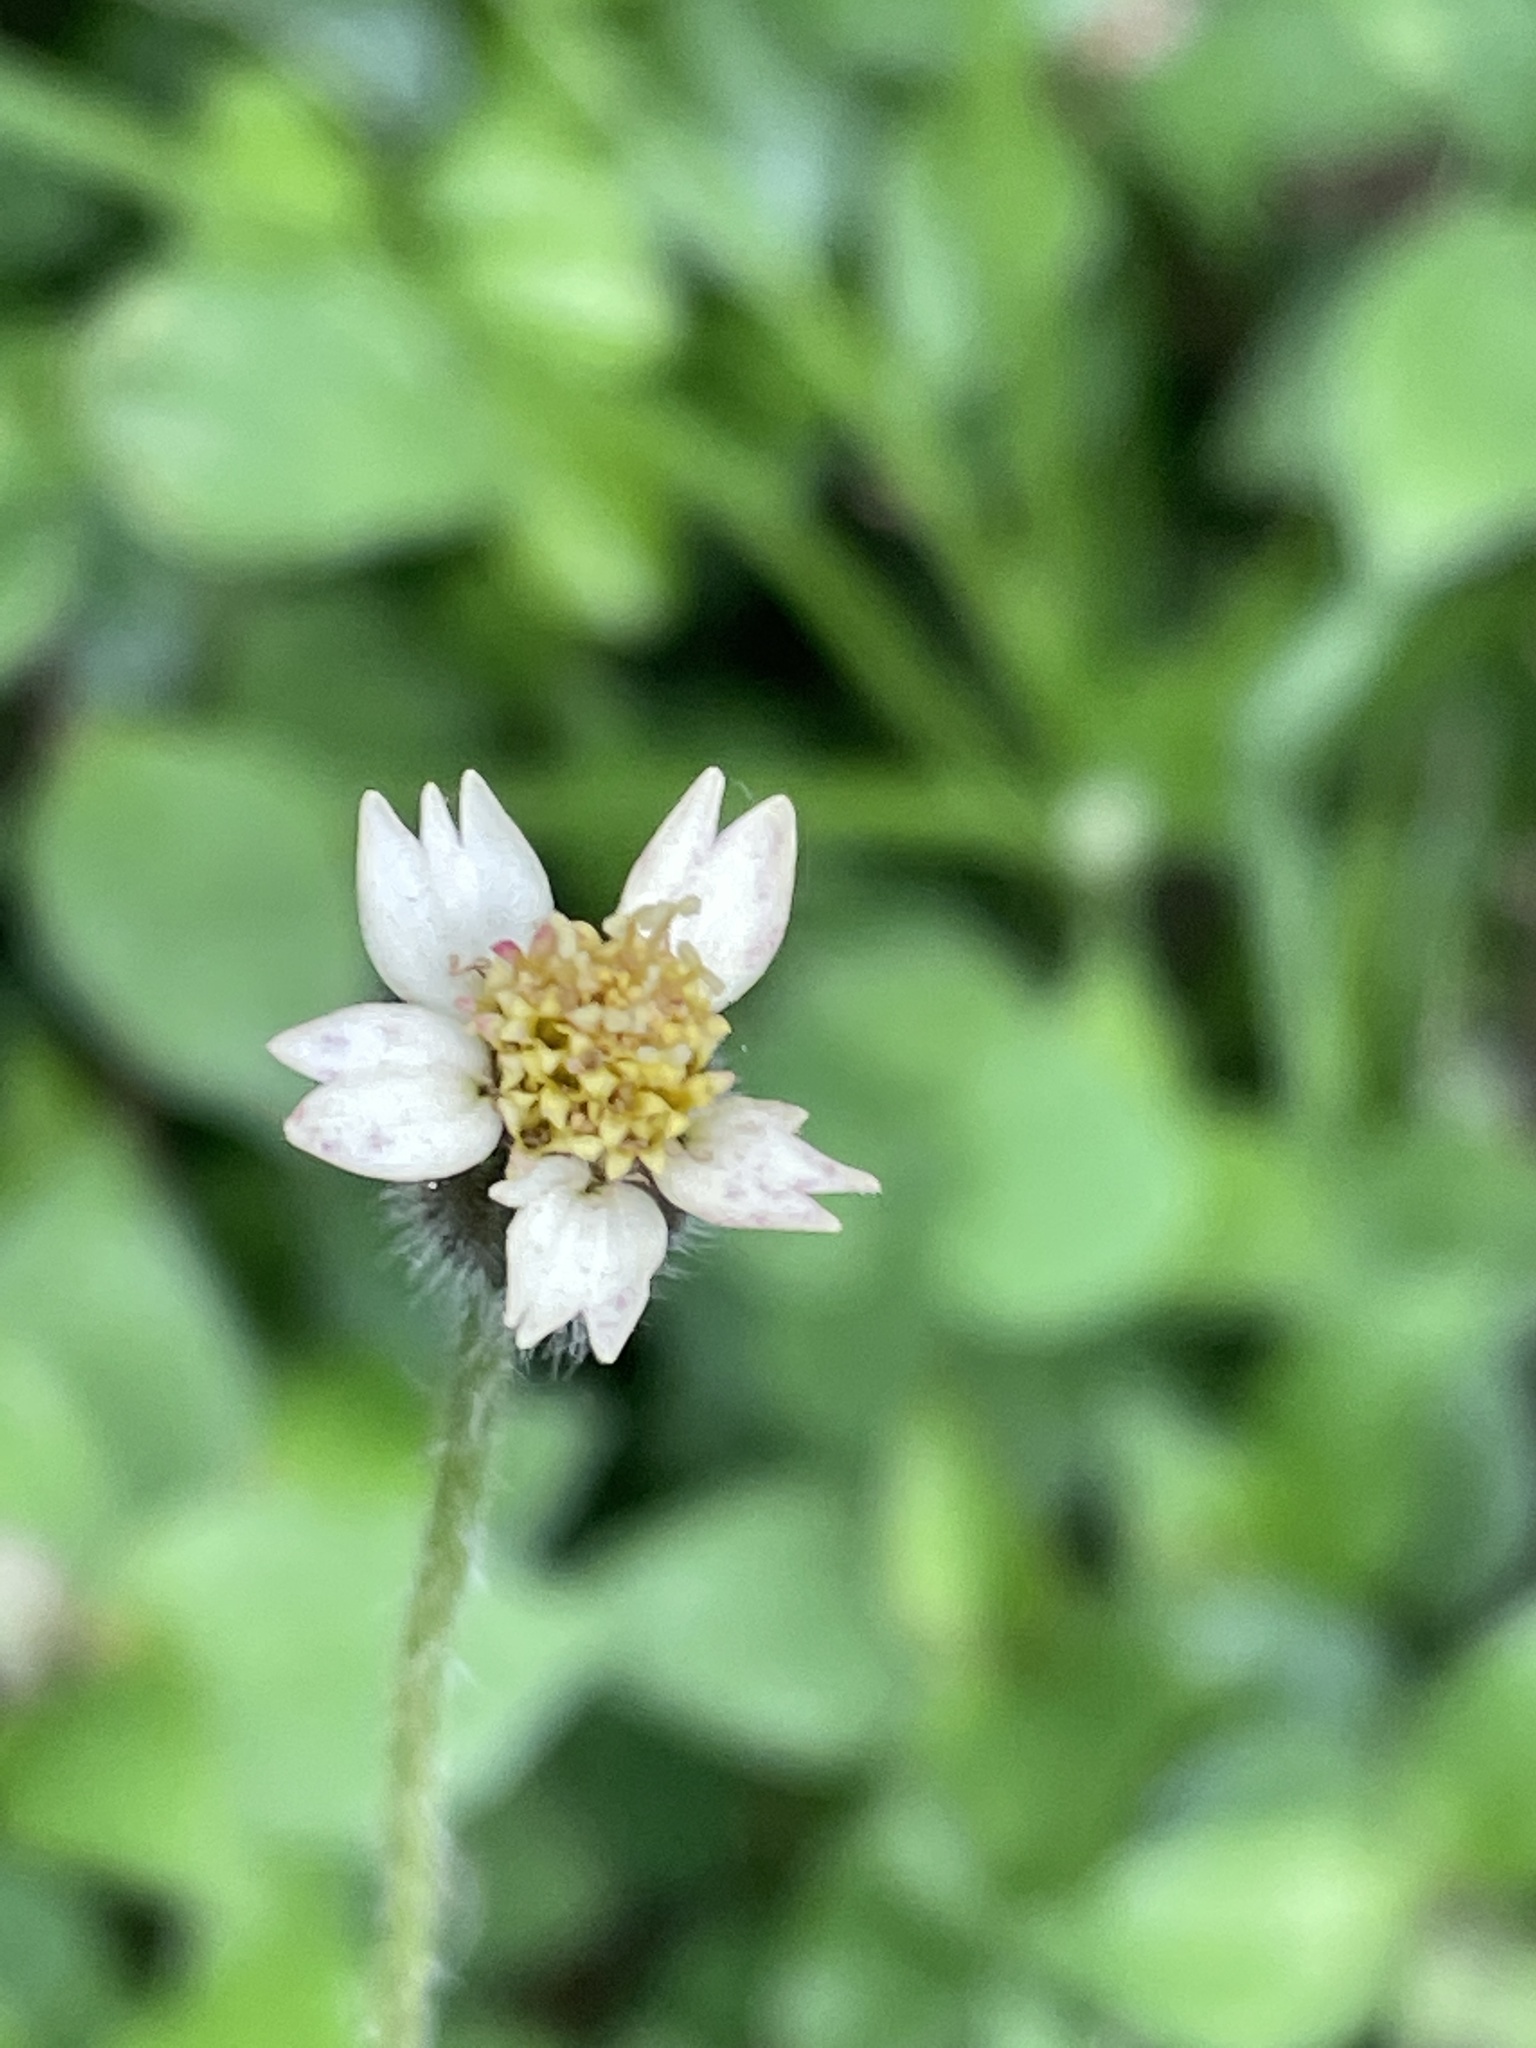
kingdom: Plantae
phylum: Tracheophyta
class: Magnoliopsida
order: Asterales
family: Asteraceae
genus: Tridax
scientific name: Tridax procumbens
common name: Coatbuttons
